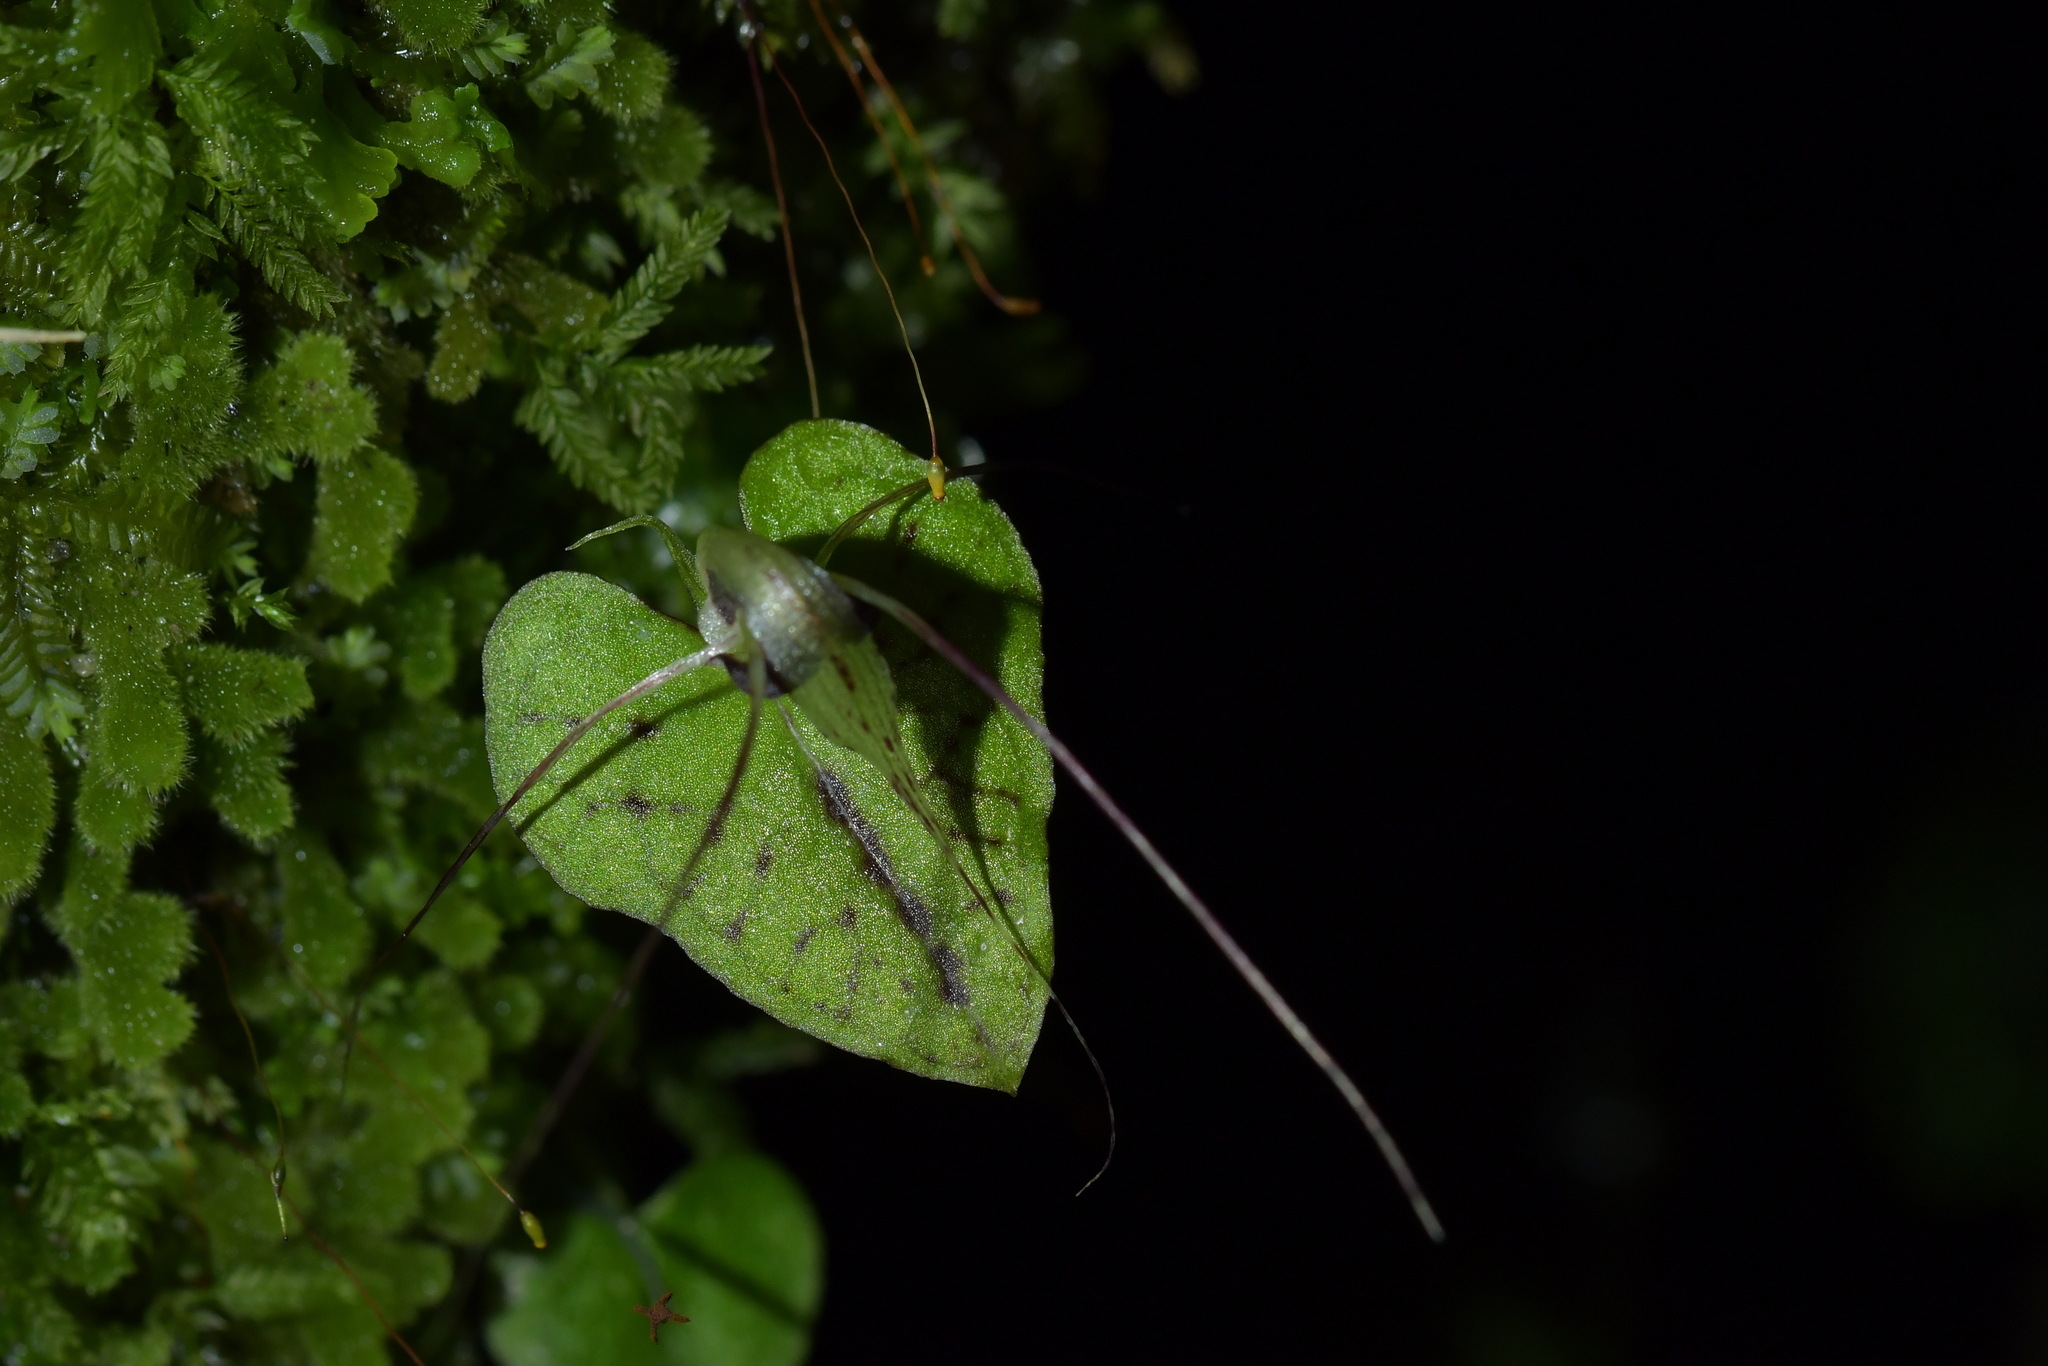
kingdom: Plantae
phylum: Tracheophyta
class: Liliopsida
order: Asparagales
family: Orchidaceae
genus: Corybas
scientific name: Corybas acuminatus
